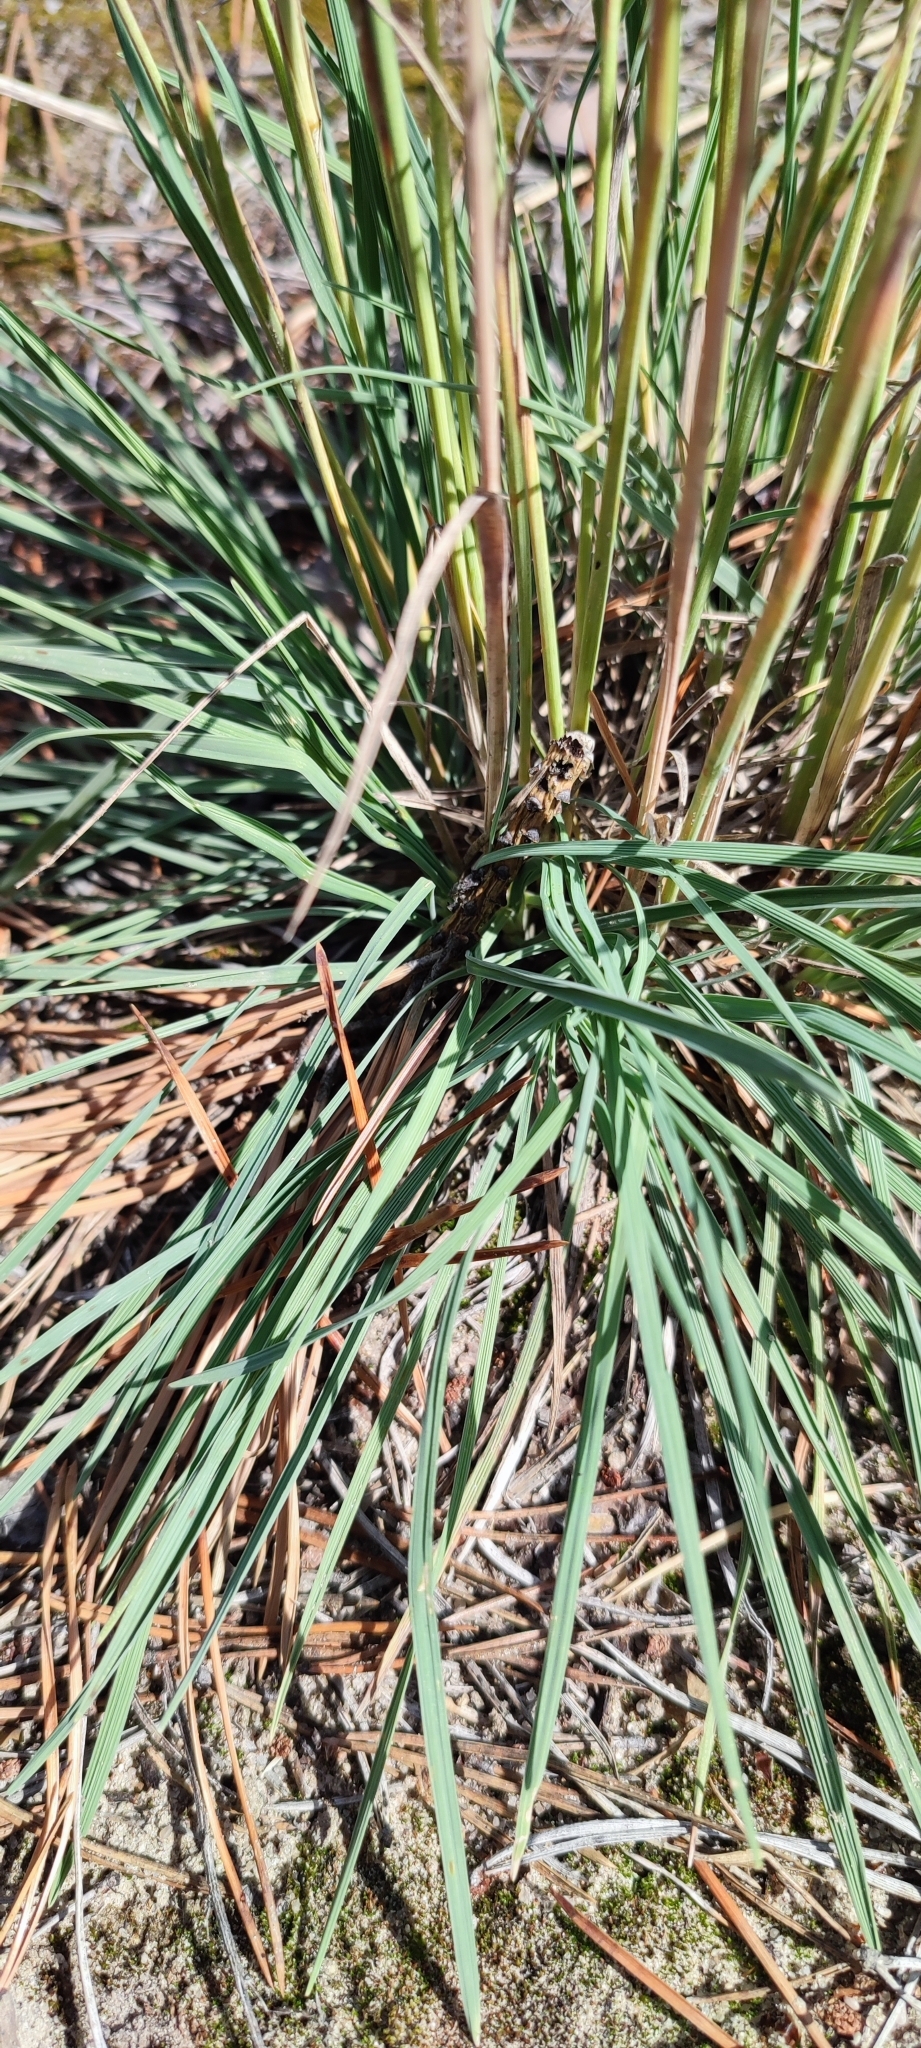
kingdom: Plantae
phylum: Tracheophyta
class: Liliopsida
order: Poales
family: Poaceae
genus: Koeleria
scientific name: Koeleria glauca
